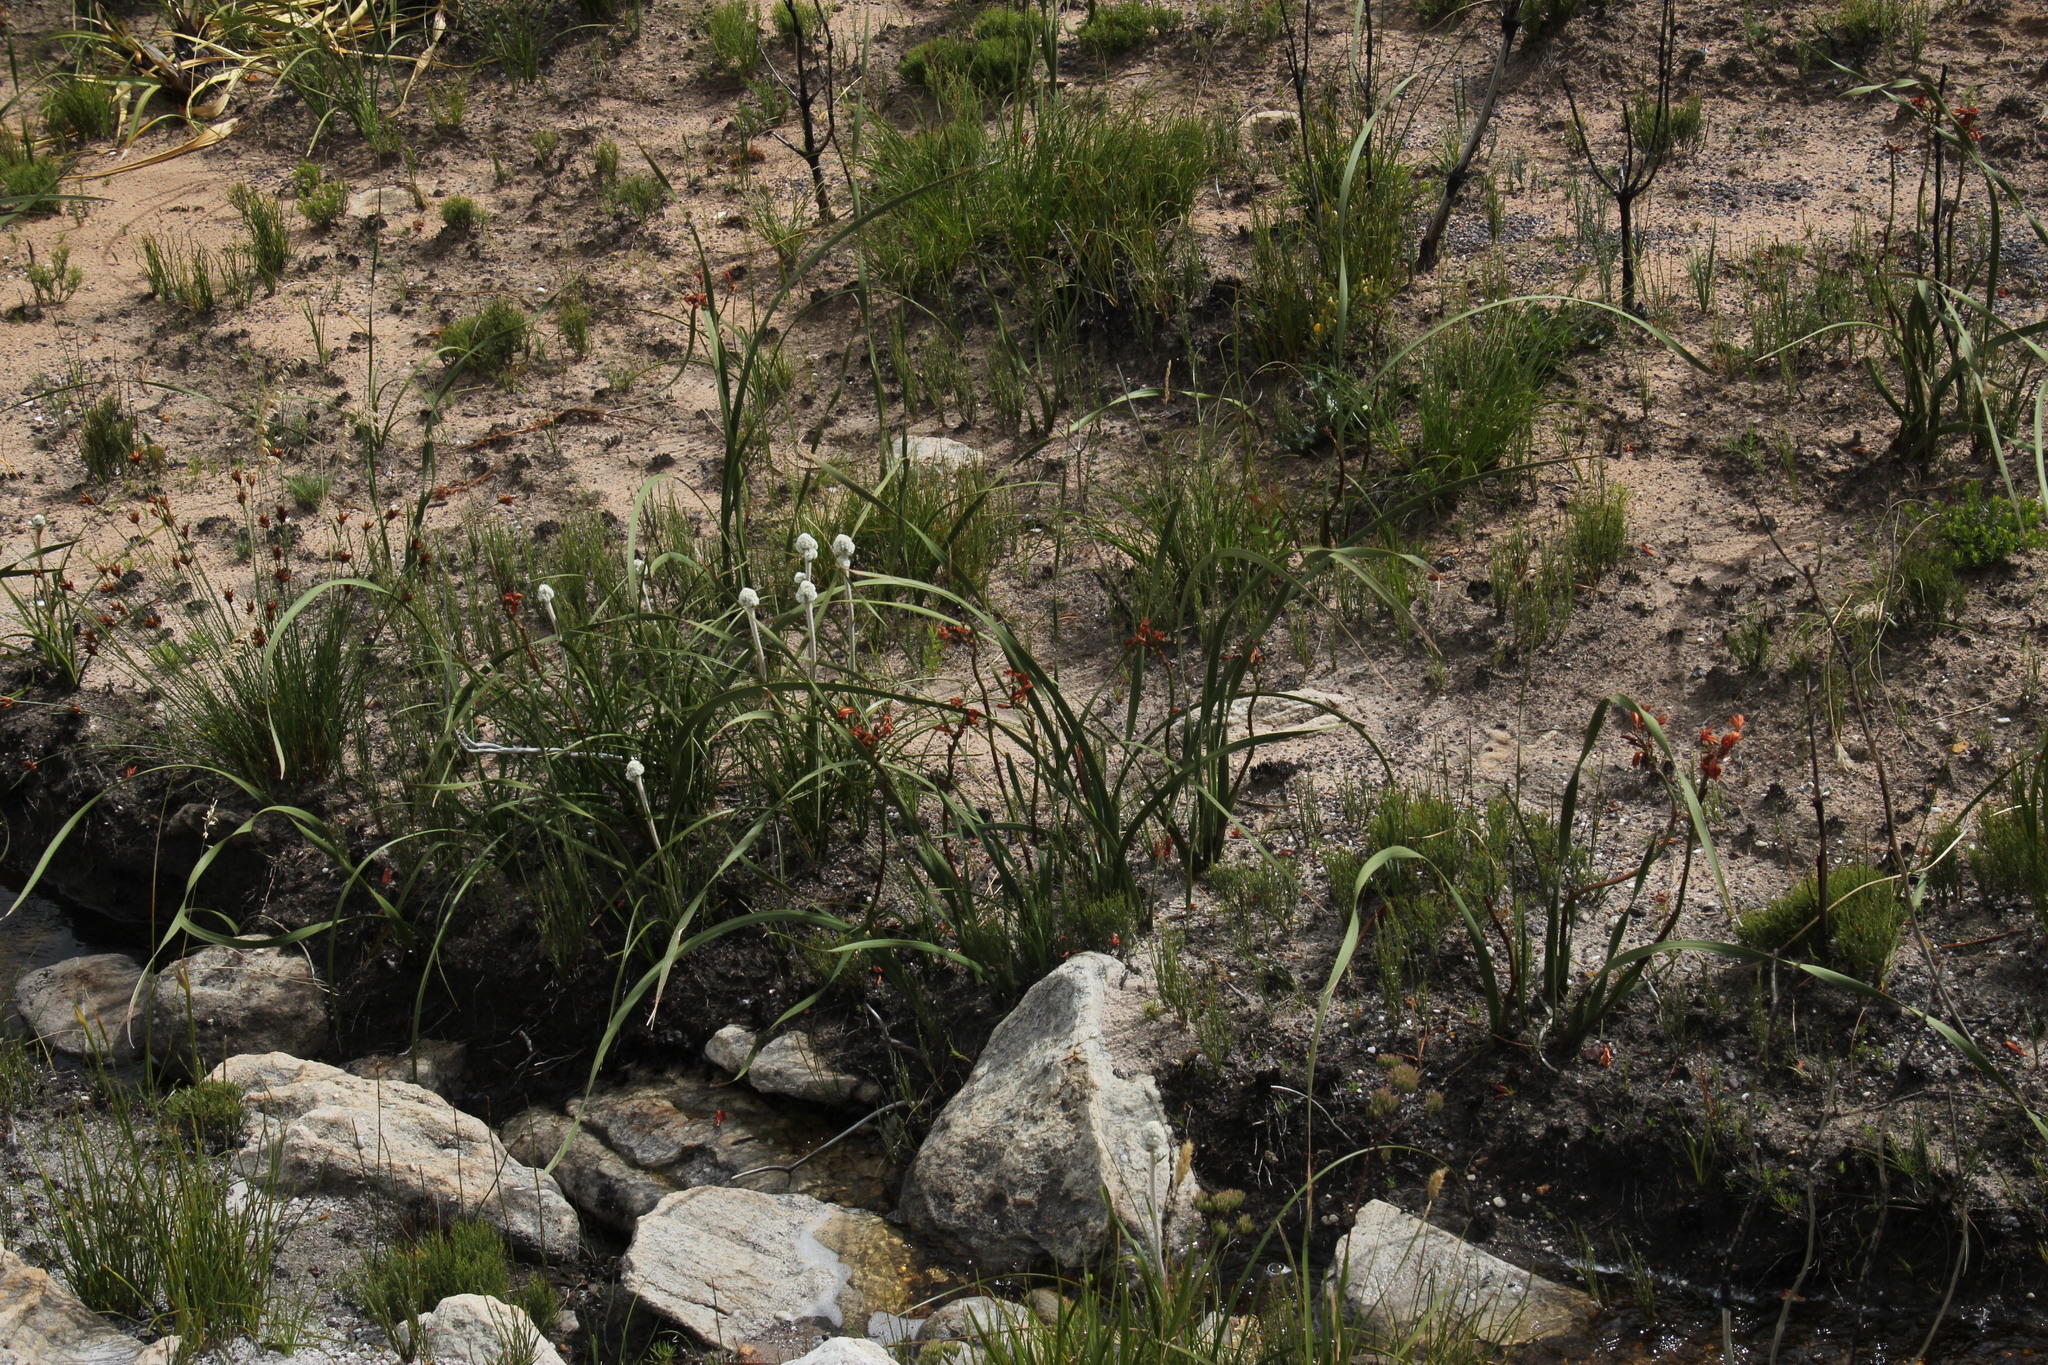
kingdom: Plantae
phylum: Tracheophyta
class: Liliopsida
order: Asparagales
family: Iridaceae
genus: Pillansia
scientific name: Pillansia templemannii
